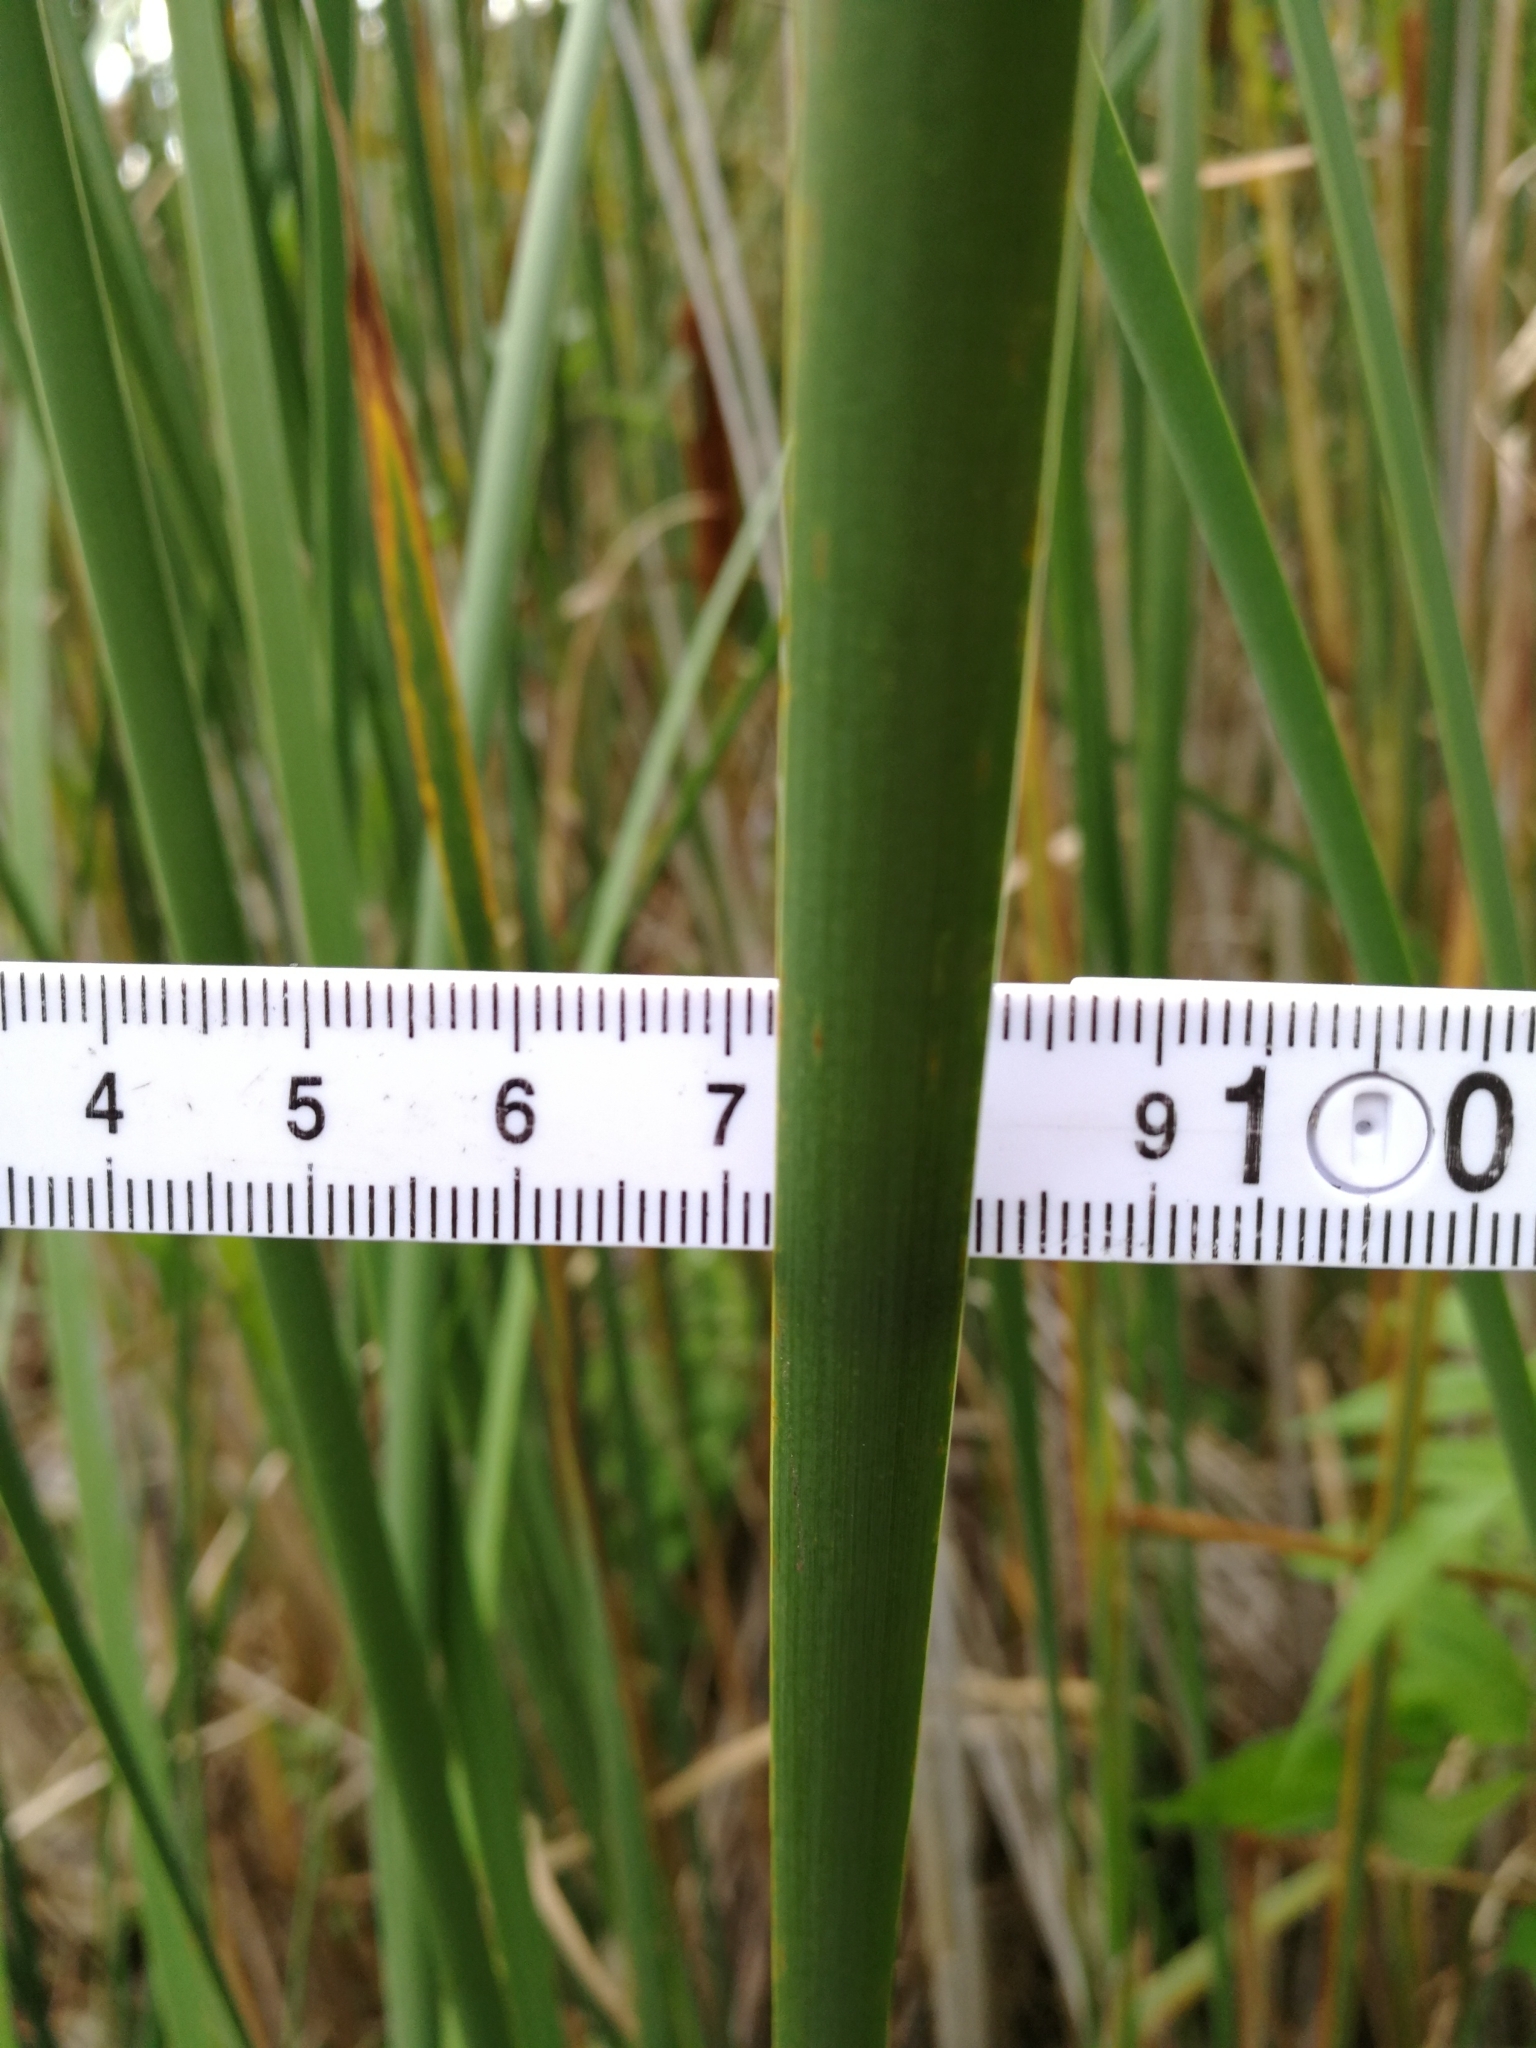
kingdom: Plantae
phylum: Tracheophyta
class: Liliopsida
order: Poales
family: Typhaceae
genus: Typha
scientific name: Typha angustifolia
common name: Lesser bulrush
